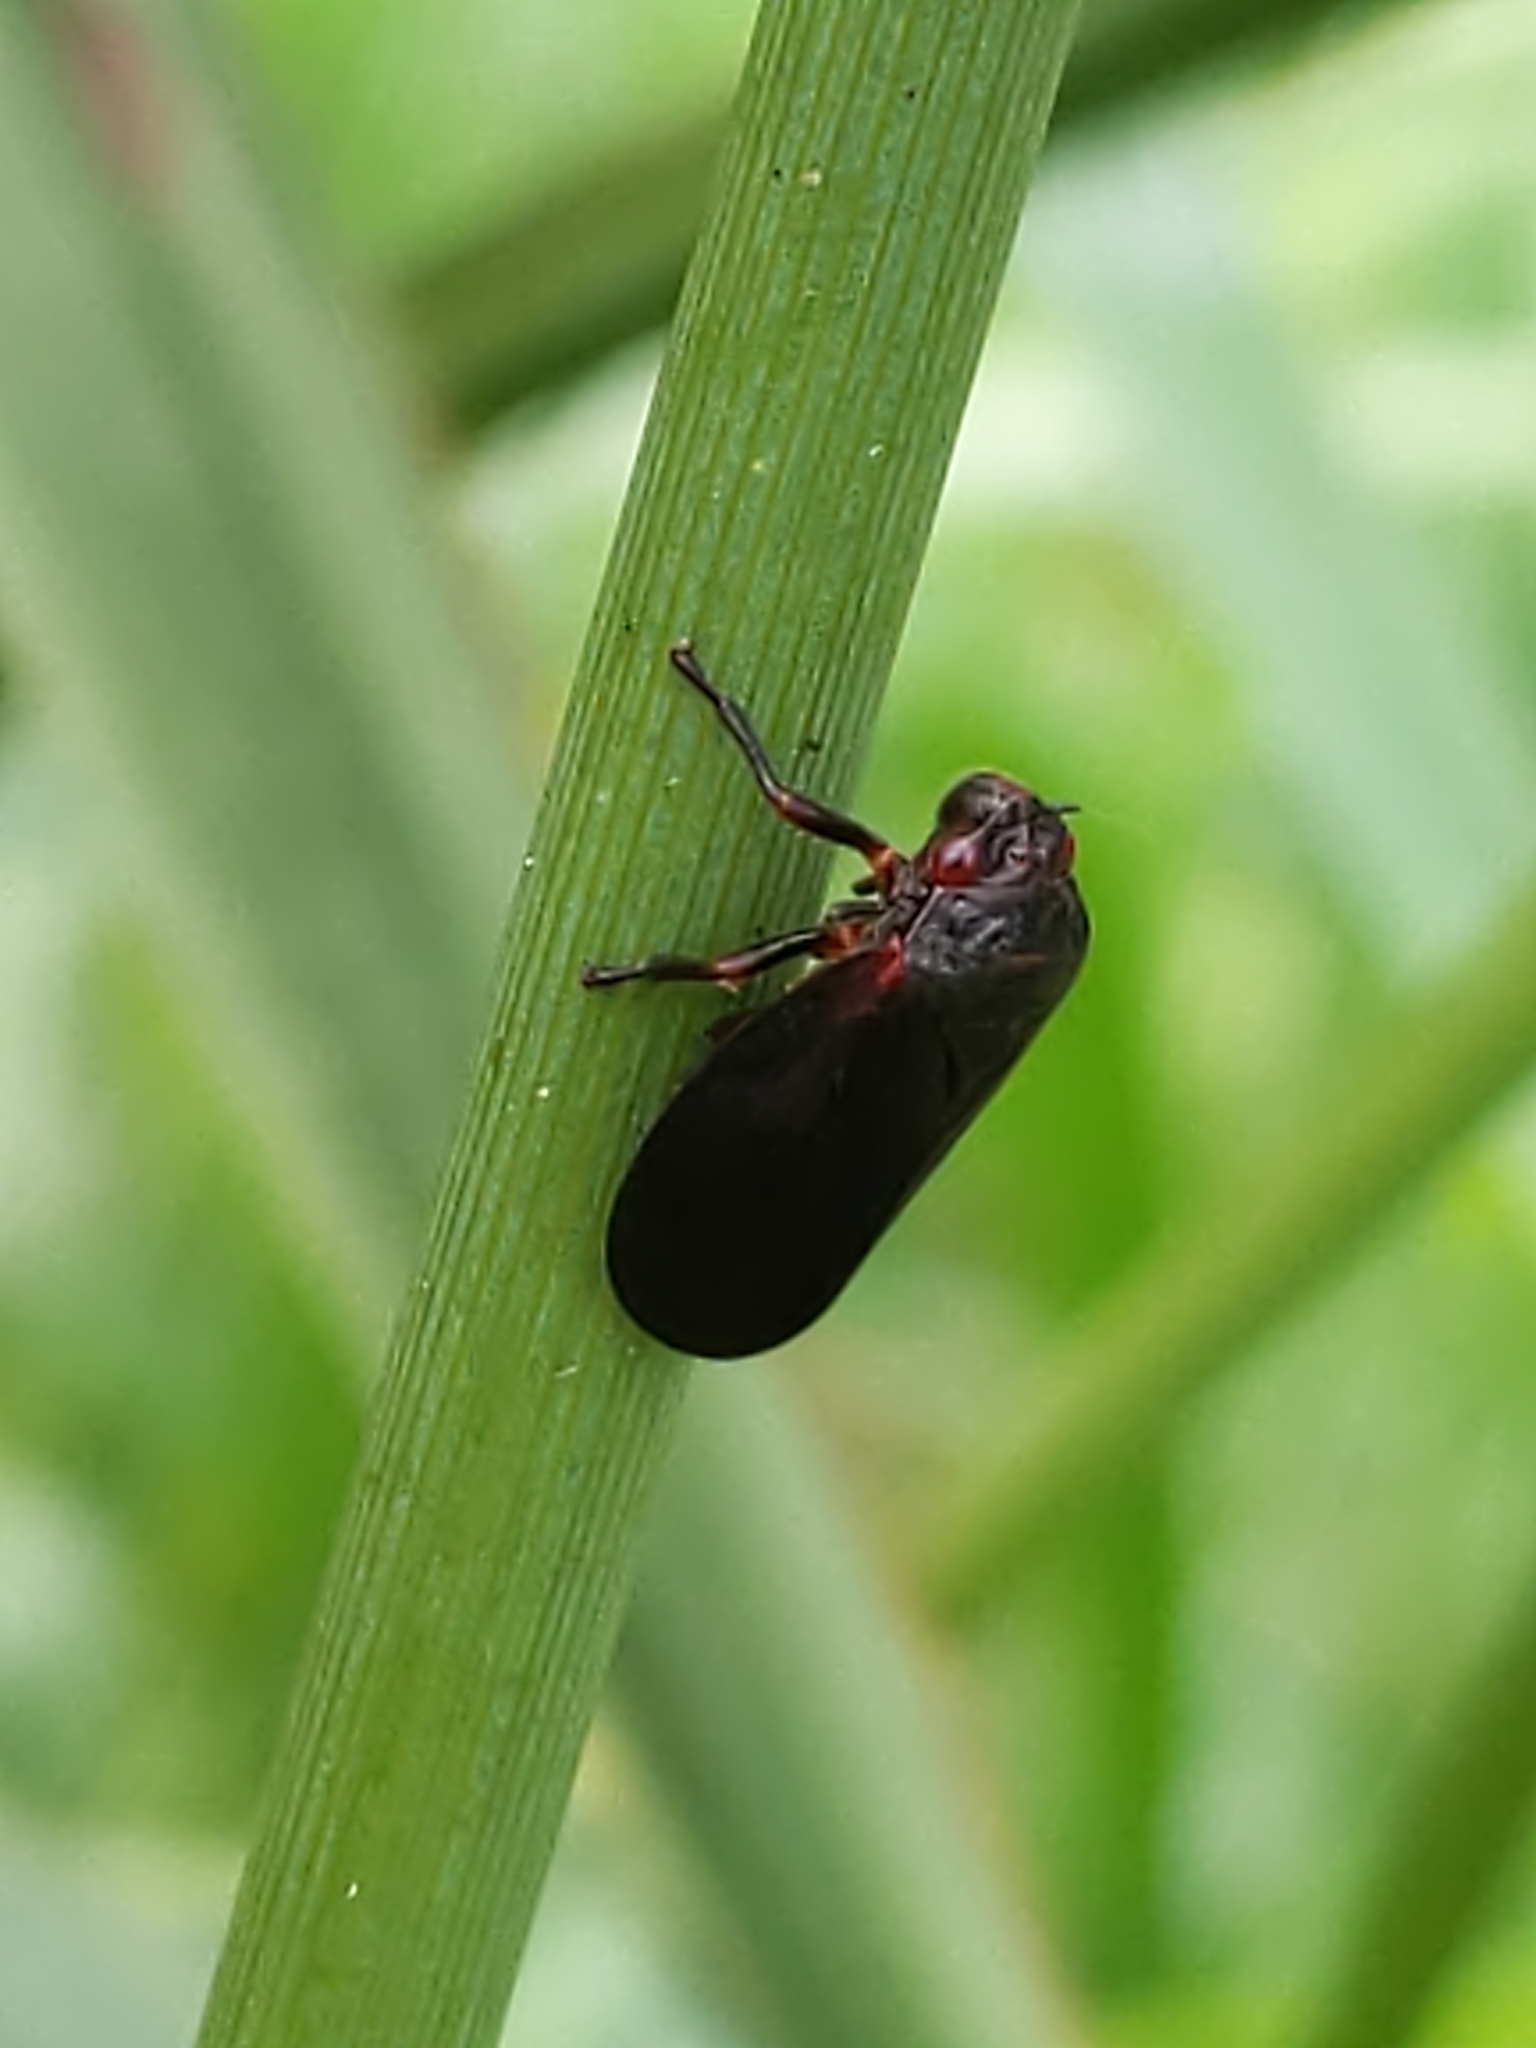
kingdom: Animalia
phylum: Arthropoda
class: Insecta
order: Hemiptera
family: Cercopidae
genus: Prosapia
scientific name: Prosapia
